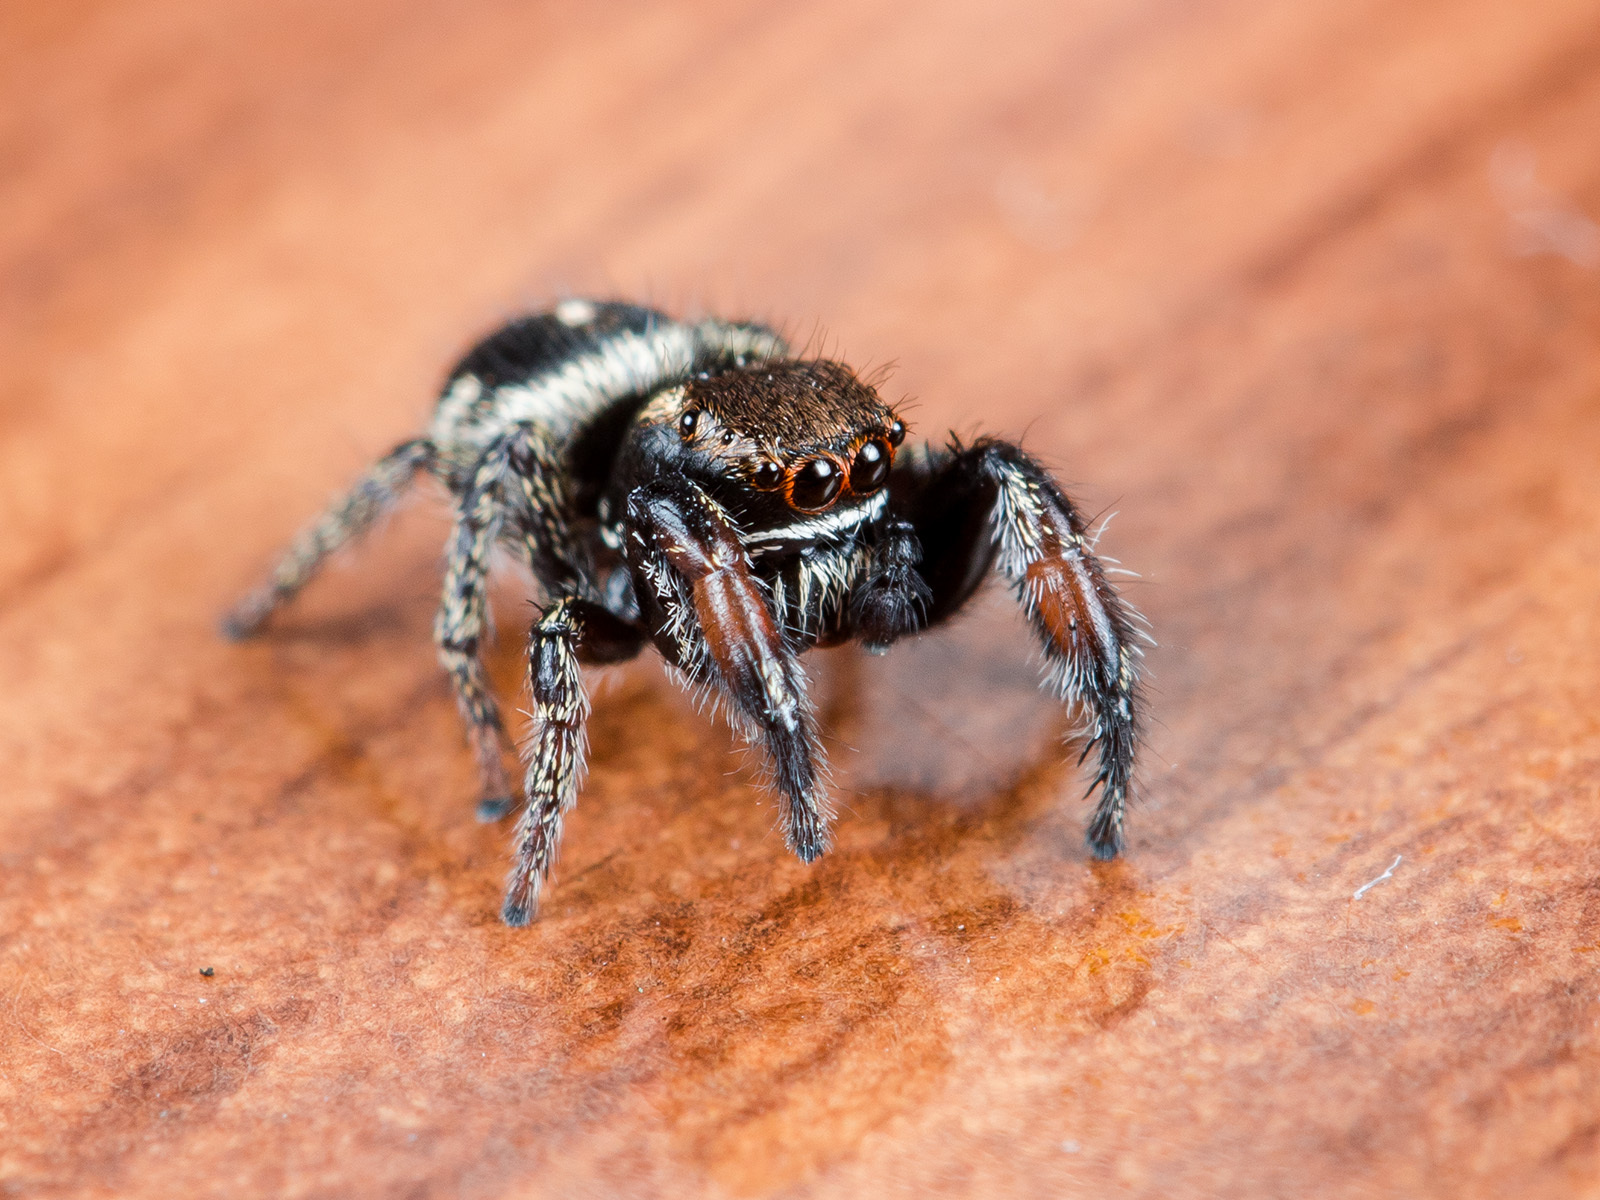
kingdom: Animalia
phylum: Arthropoda
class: Arachnida
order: Araneae
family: Salticidae
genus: Pellenes
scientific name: Pellenes allegrii
